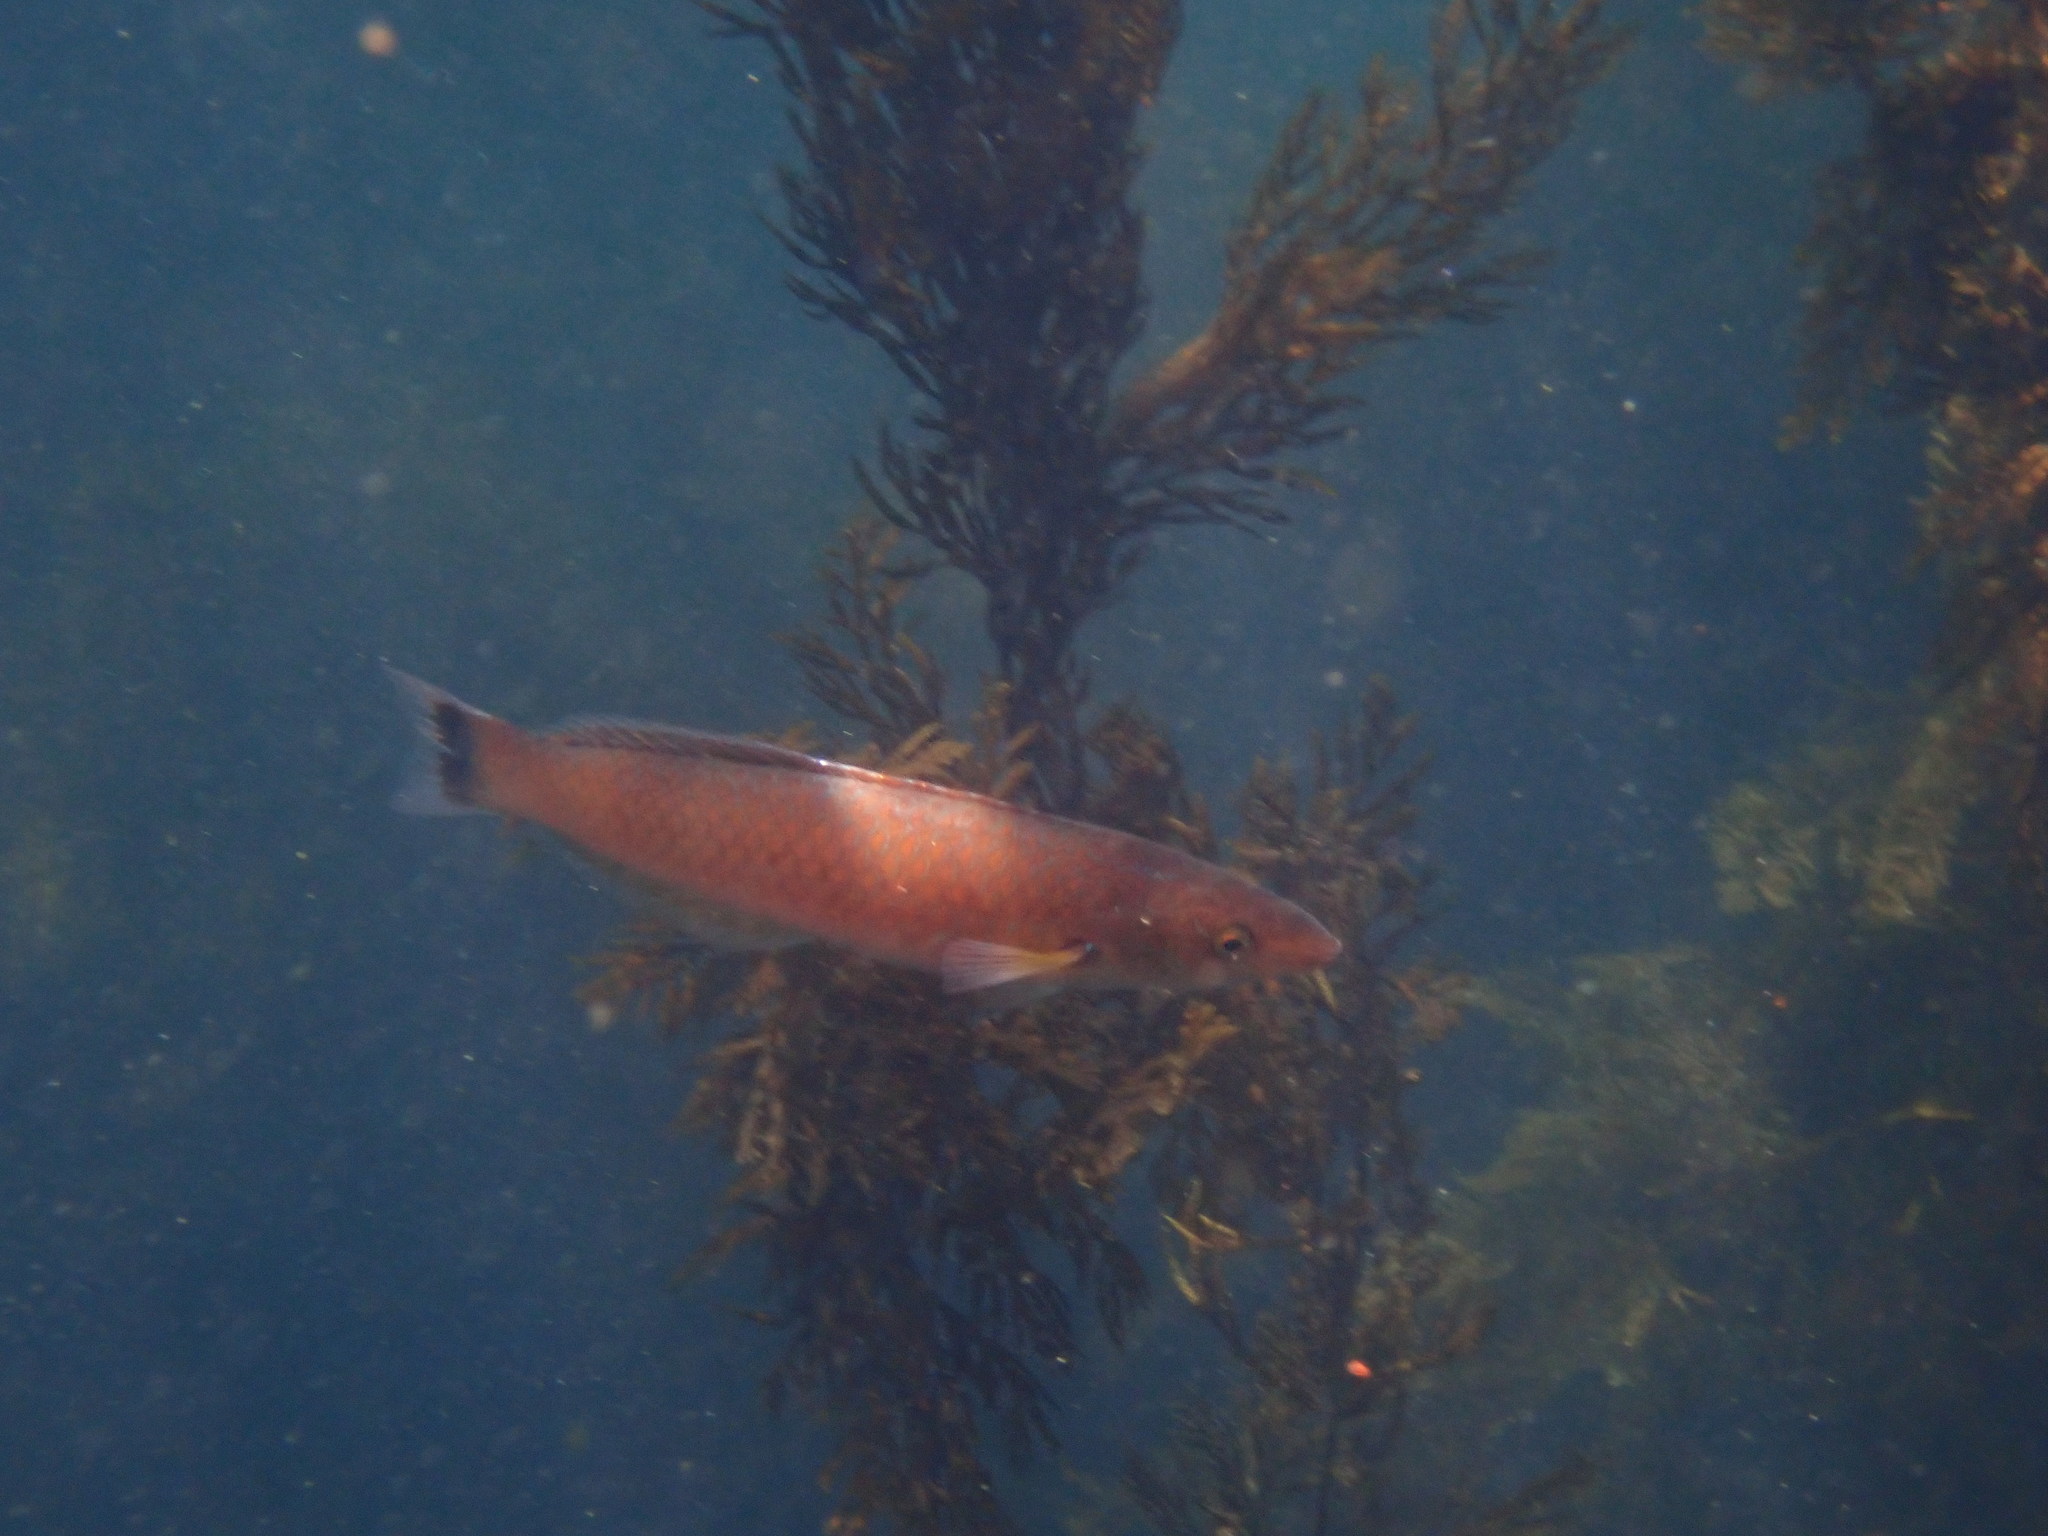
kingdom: Animalia
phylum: Chordata
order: Perciformes
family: Labridae
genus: Oxyjulis
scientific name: Oxyjulis californica
